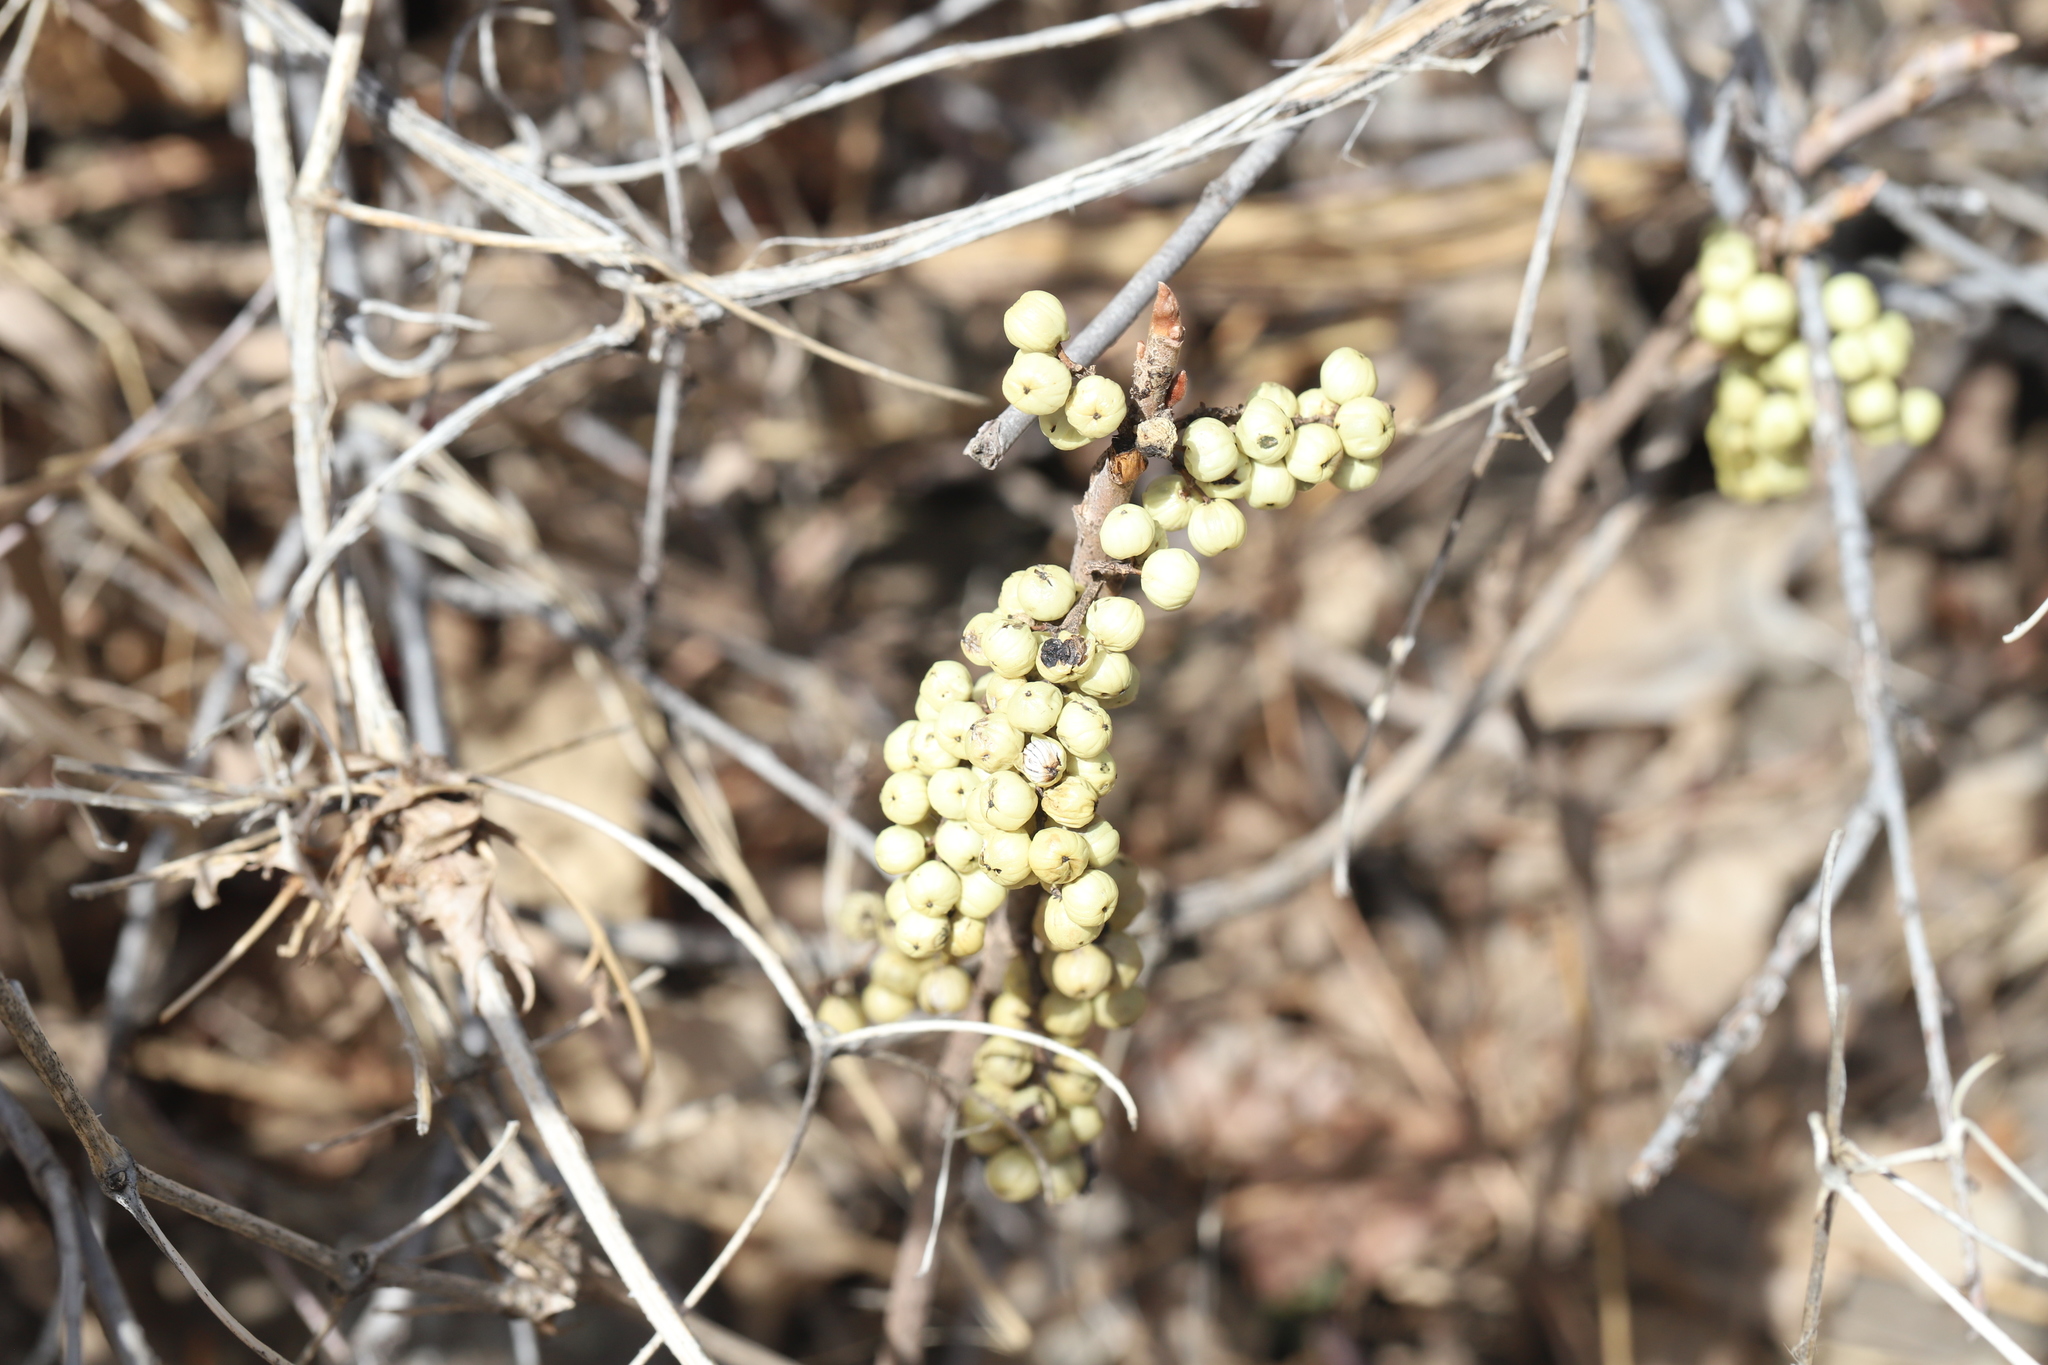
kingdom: Plantae
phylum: Tracheophyta
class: Magnoliopsida
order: Sapindales
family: Anacardiaceae
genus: Toxicodendron
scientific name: Toxicodendron rydbergii
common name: Rydberg's poison-ivy
